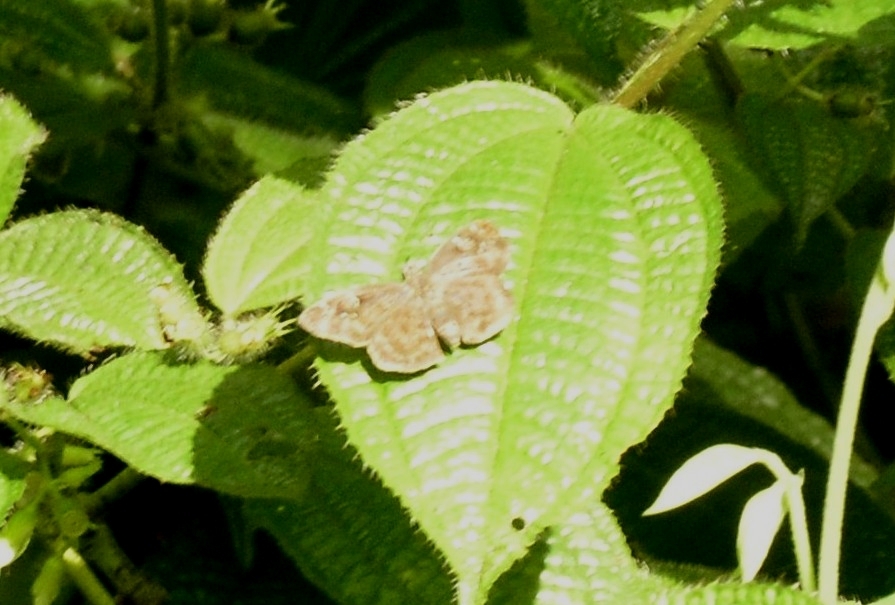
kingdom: Animalia
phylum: Arthropoda
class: Insecta
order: Lepidoptera
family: Hesperiidae
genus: Sarangesa
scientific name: Sarangesa dasahara
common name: Common small flat
